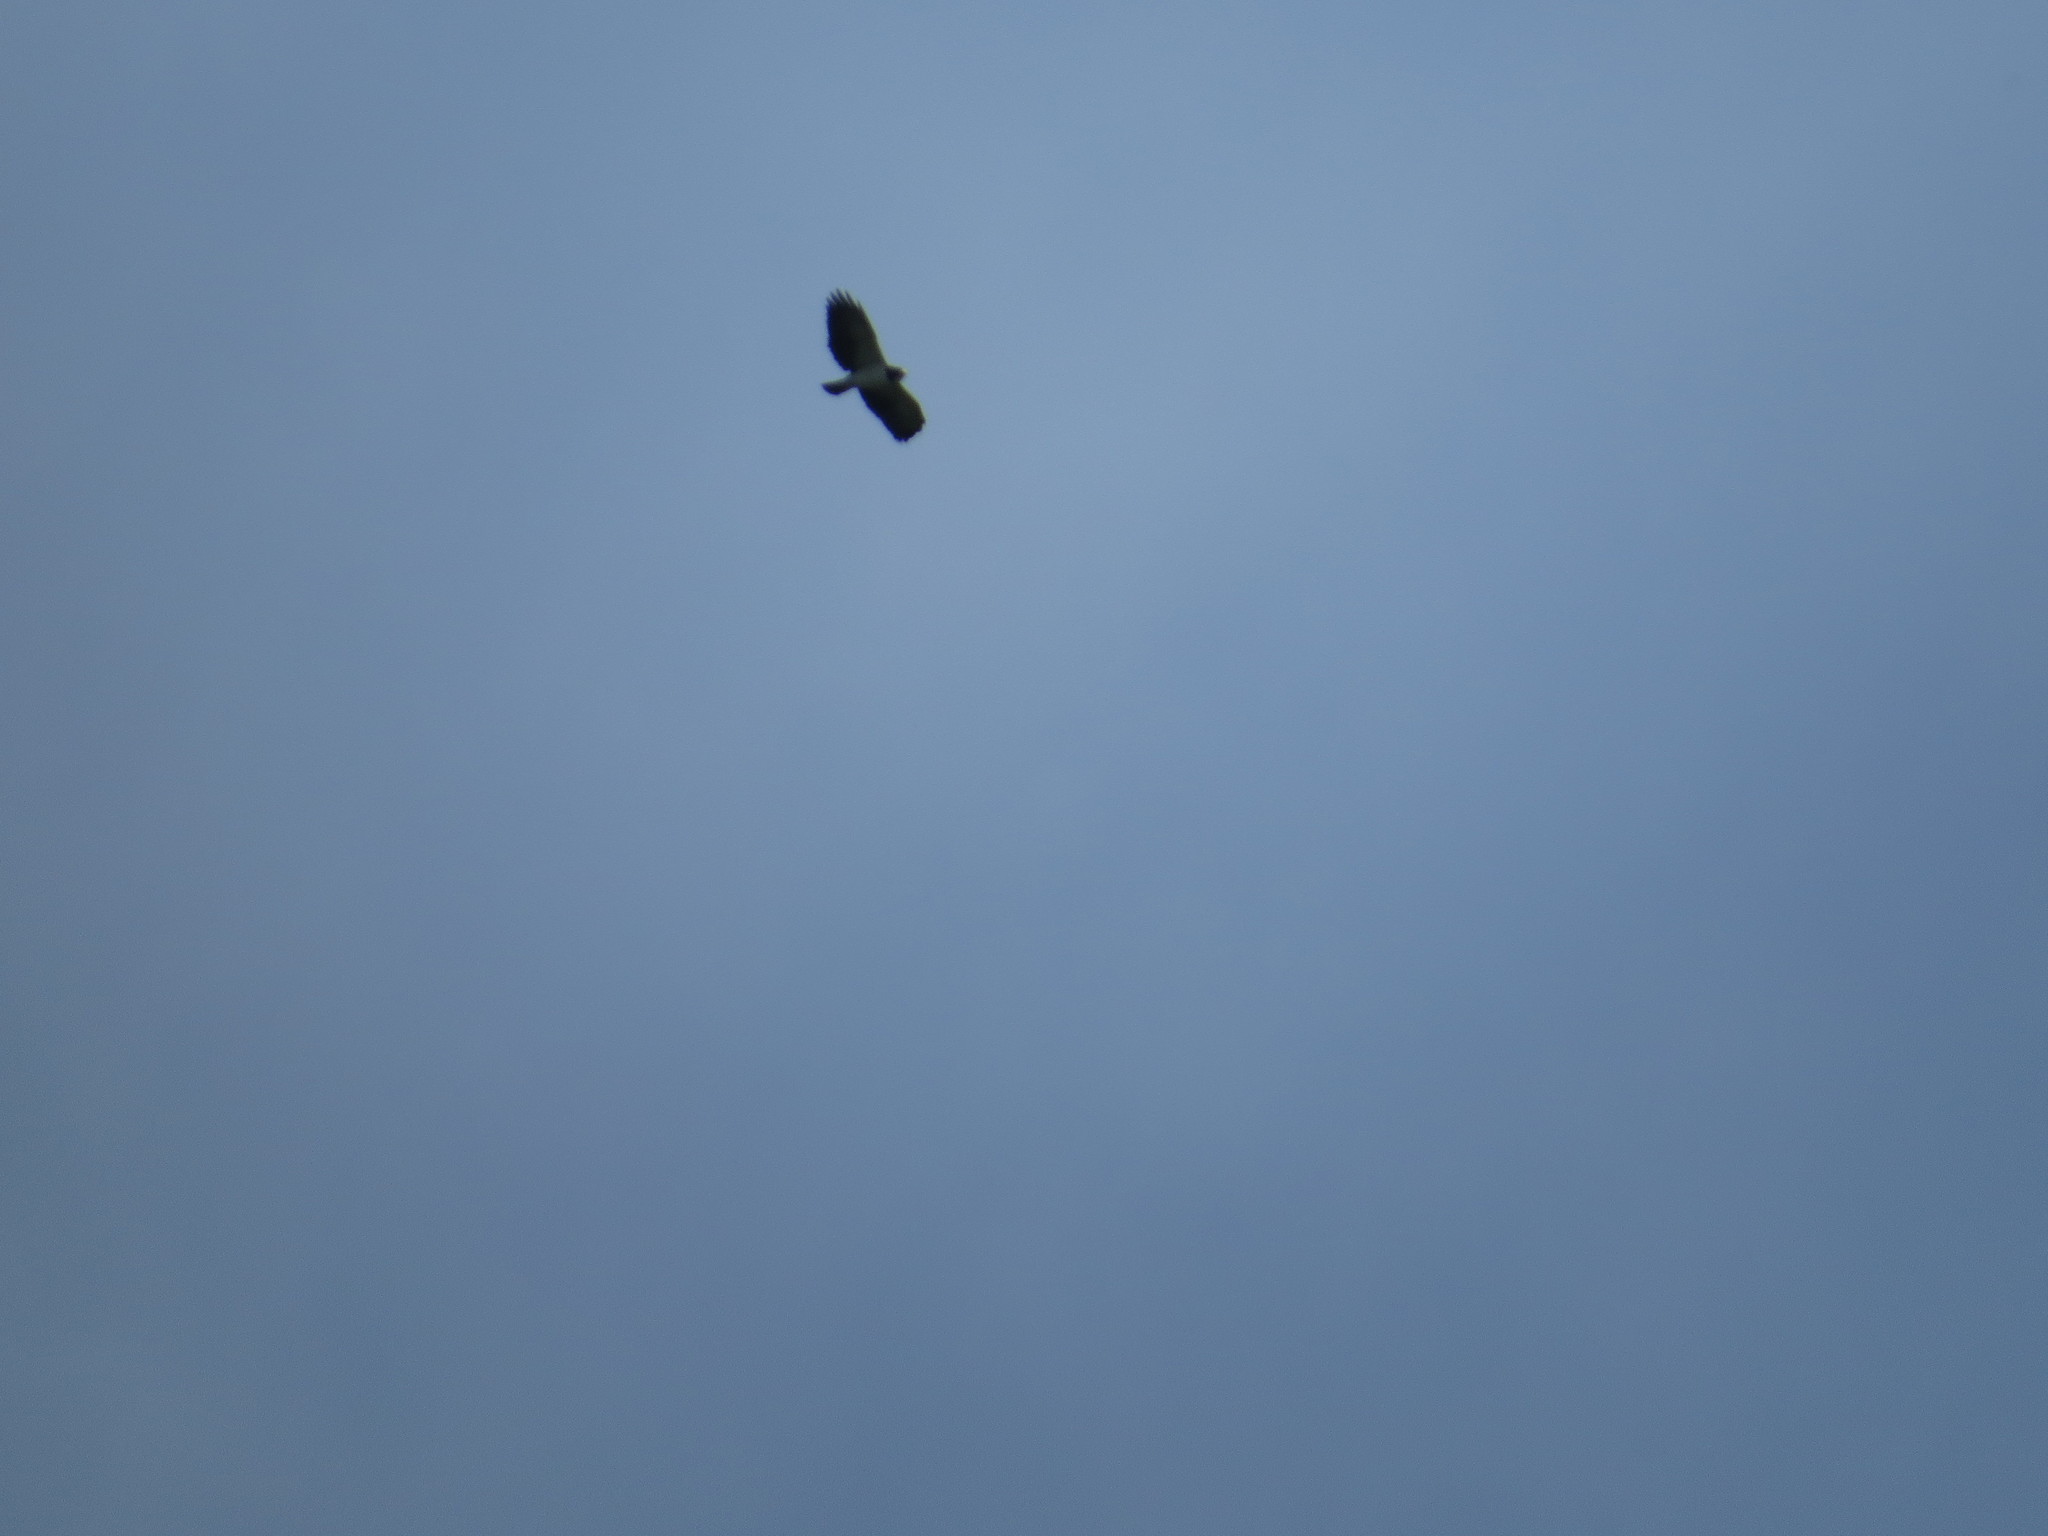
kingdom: Animalia
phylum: Chordata
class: Aves
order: Accipitriformes
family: Accipitridae
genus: Buteo
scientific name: Buteo brachyurus
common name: Short-tailed hawk
